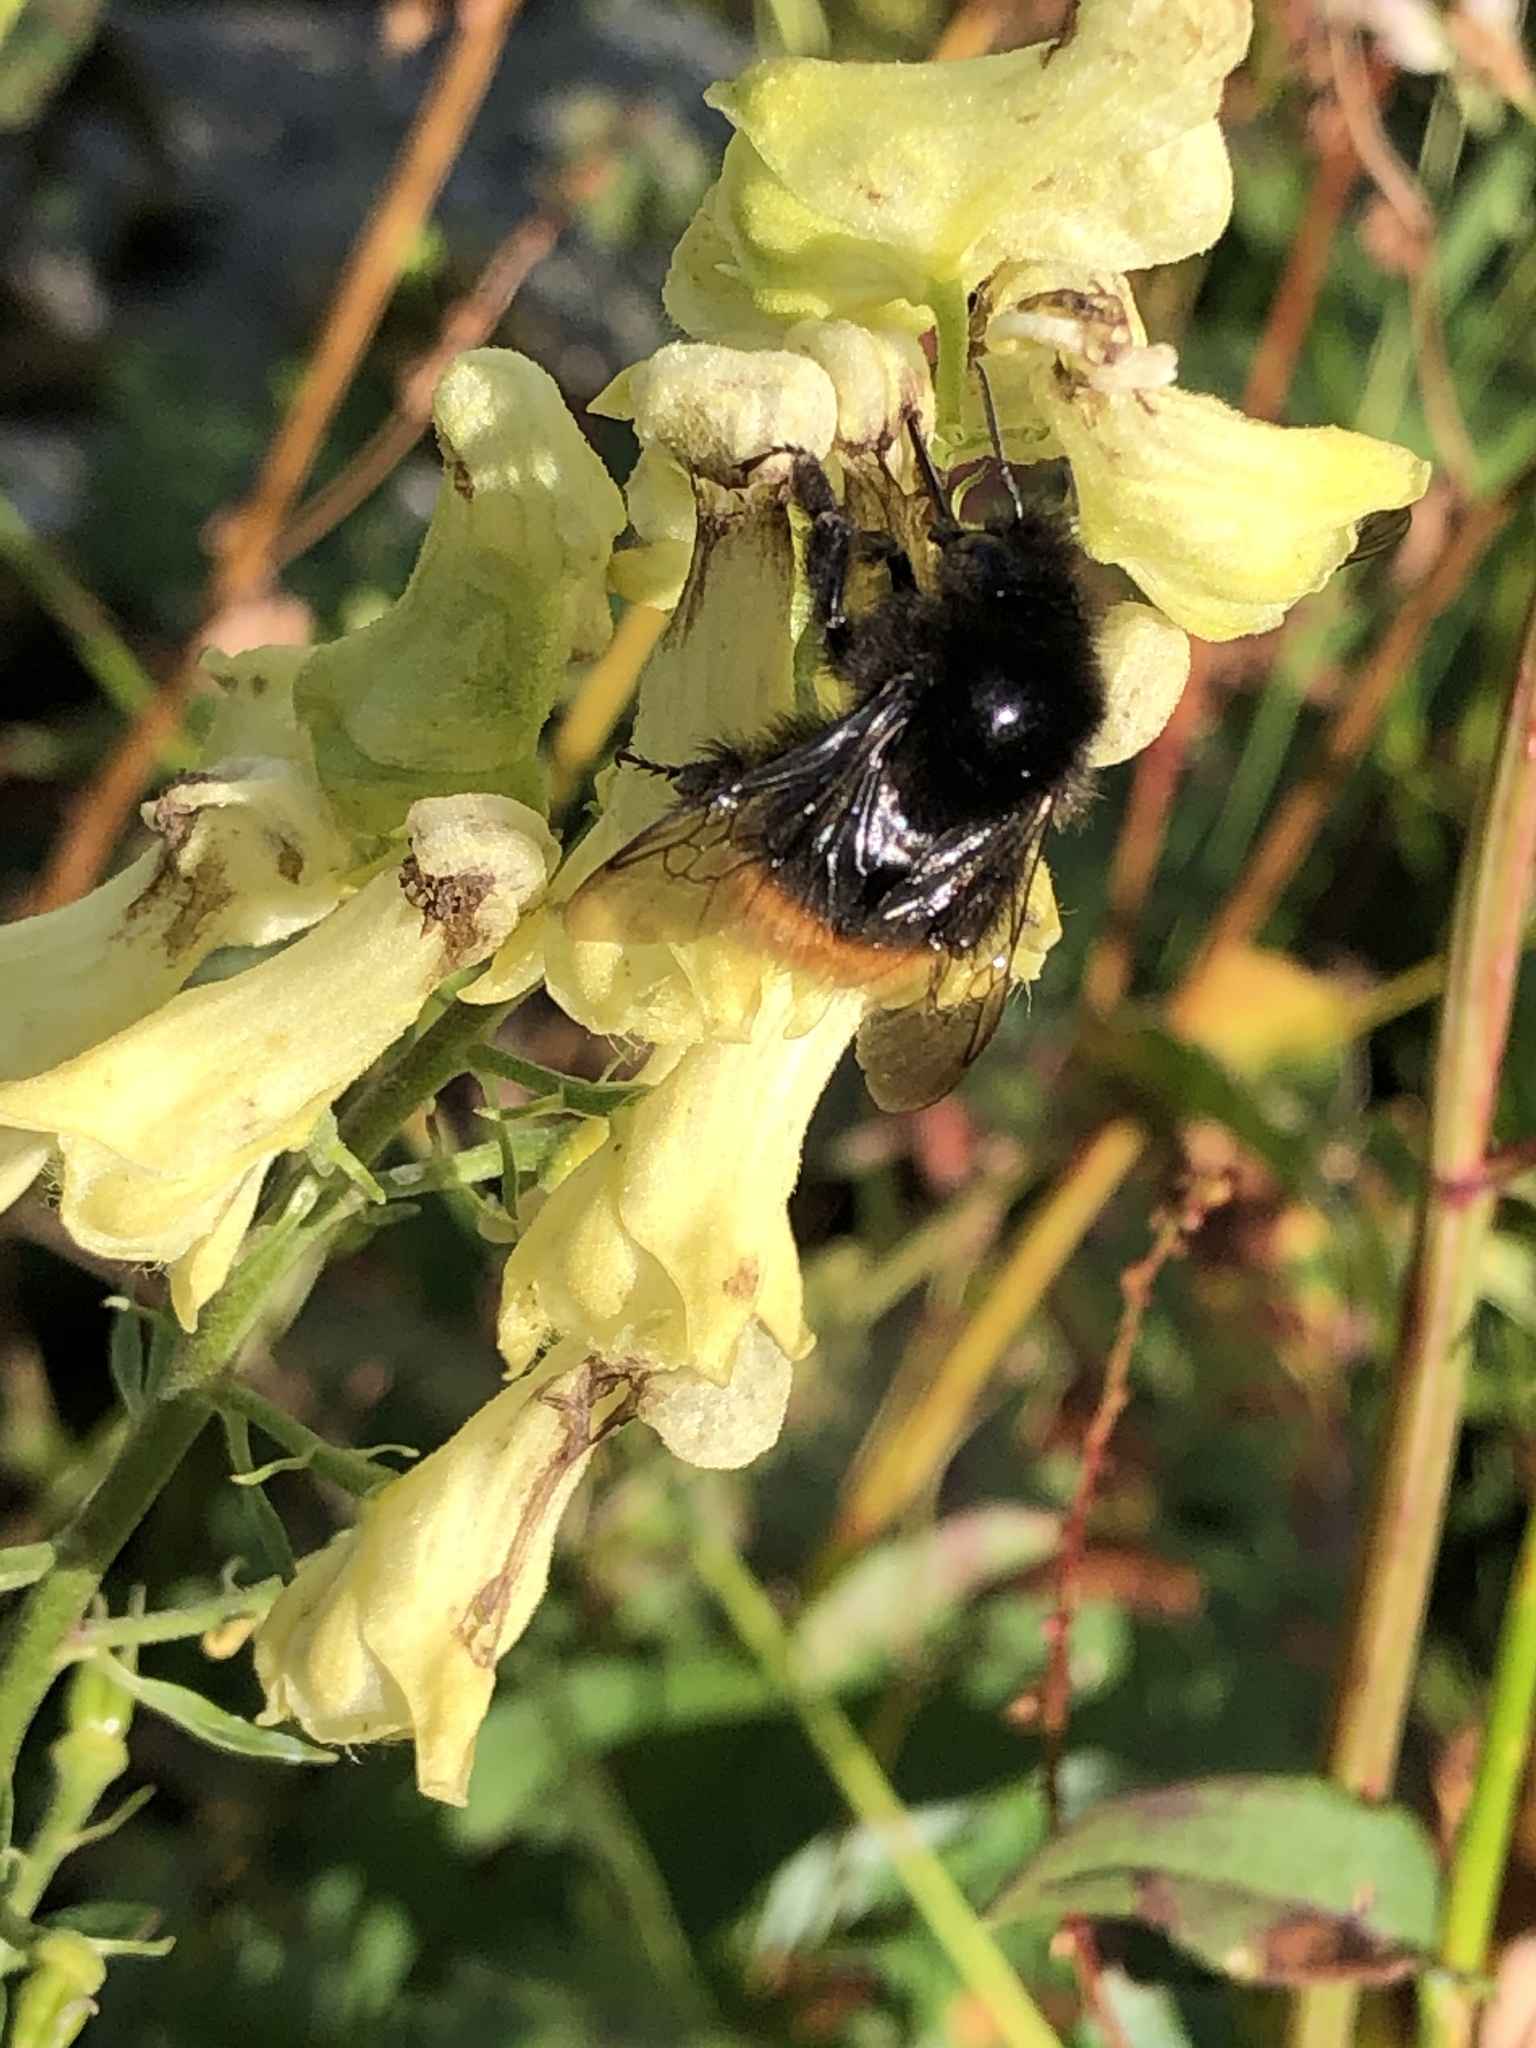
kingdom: Animalia
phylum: Arthropoda
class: Insecta
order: Hymenoptera
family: Apidae
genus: Bombus
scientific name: Bombus wurflenii
